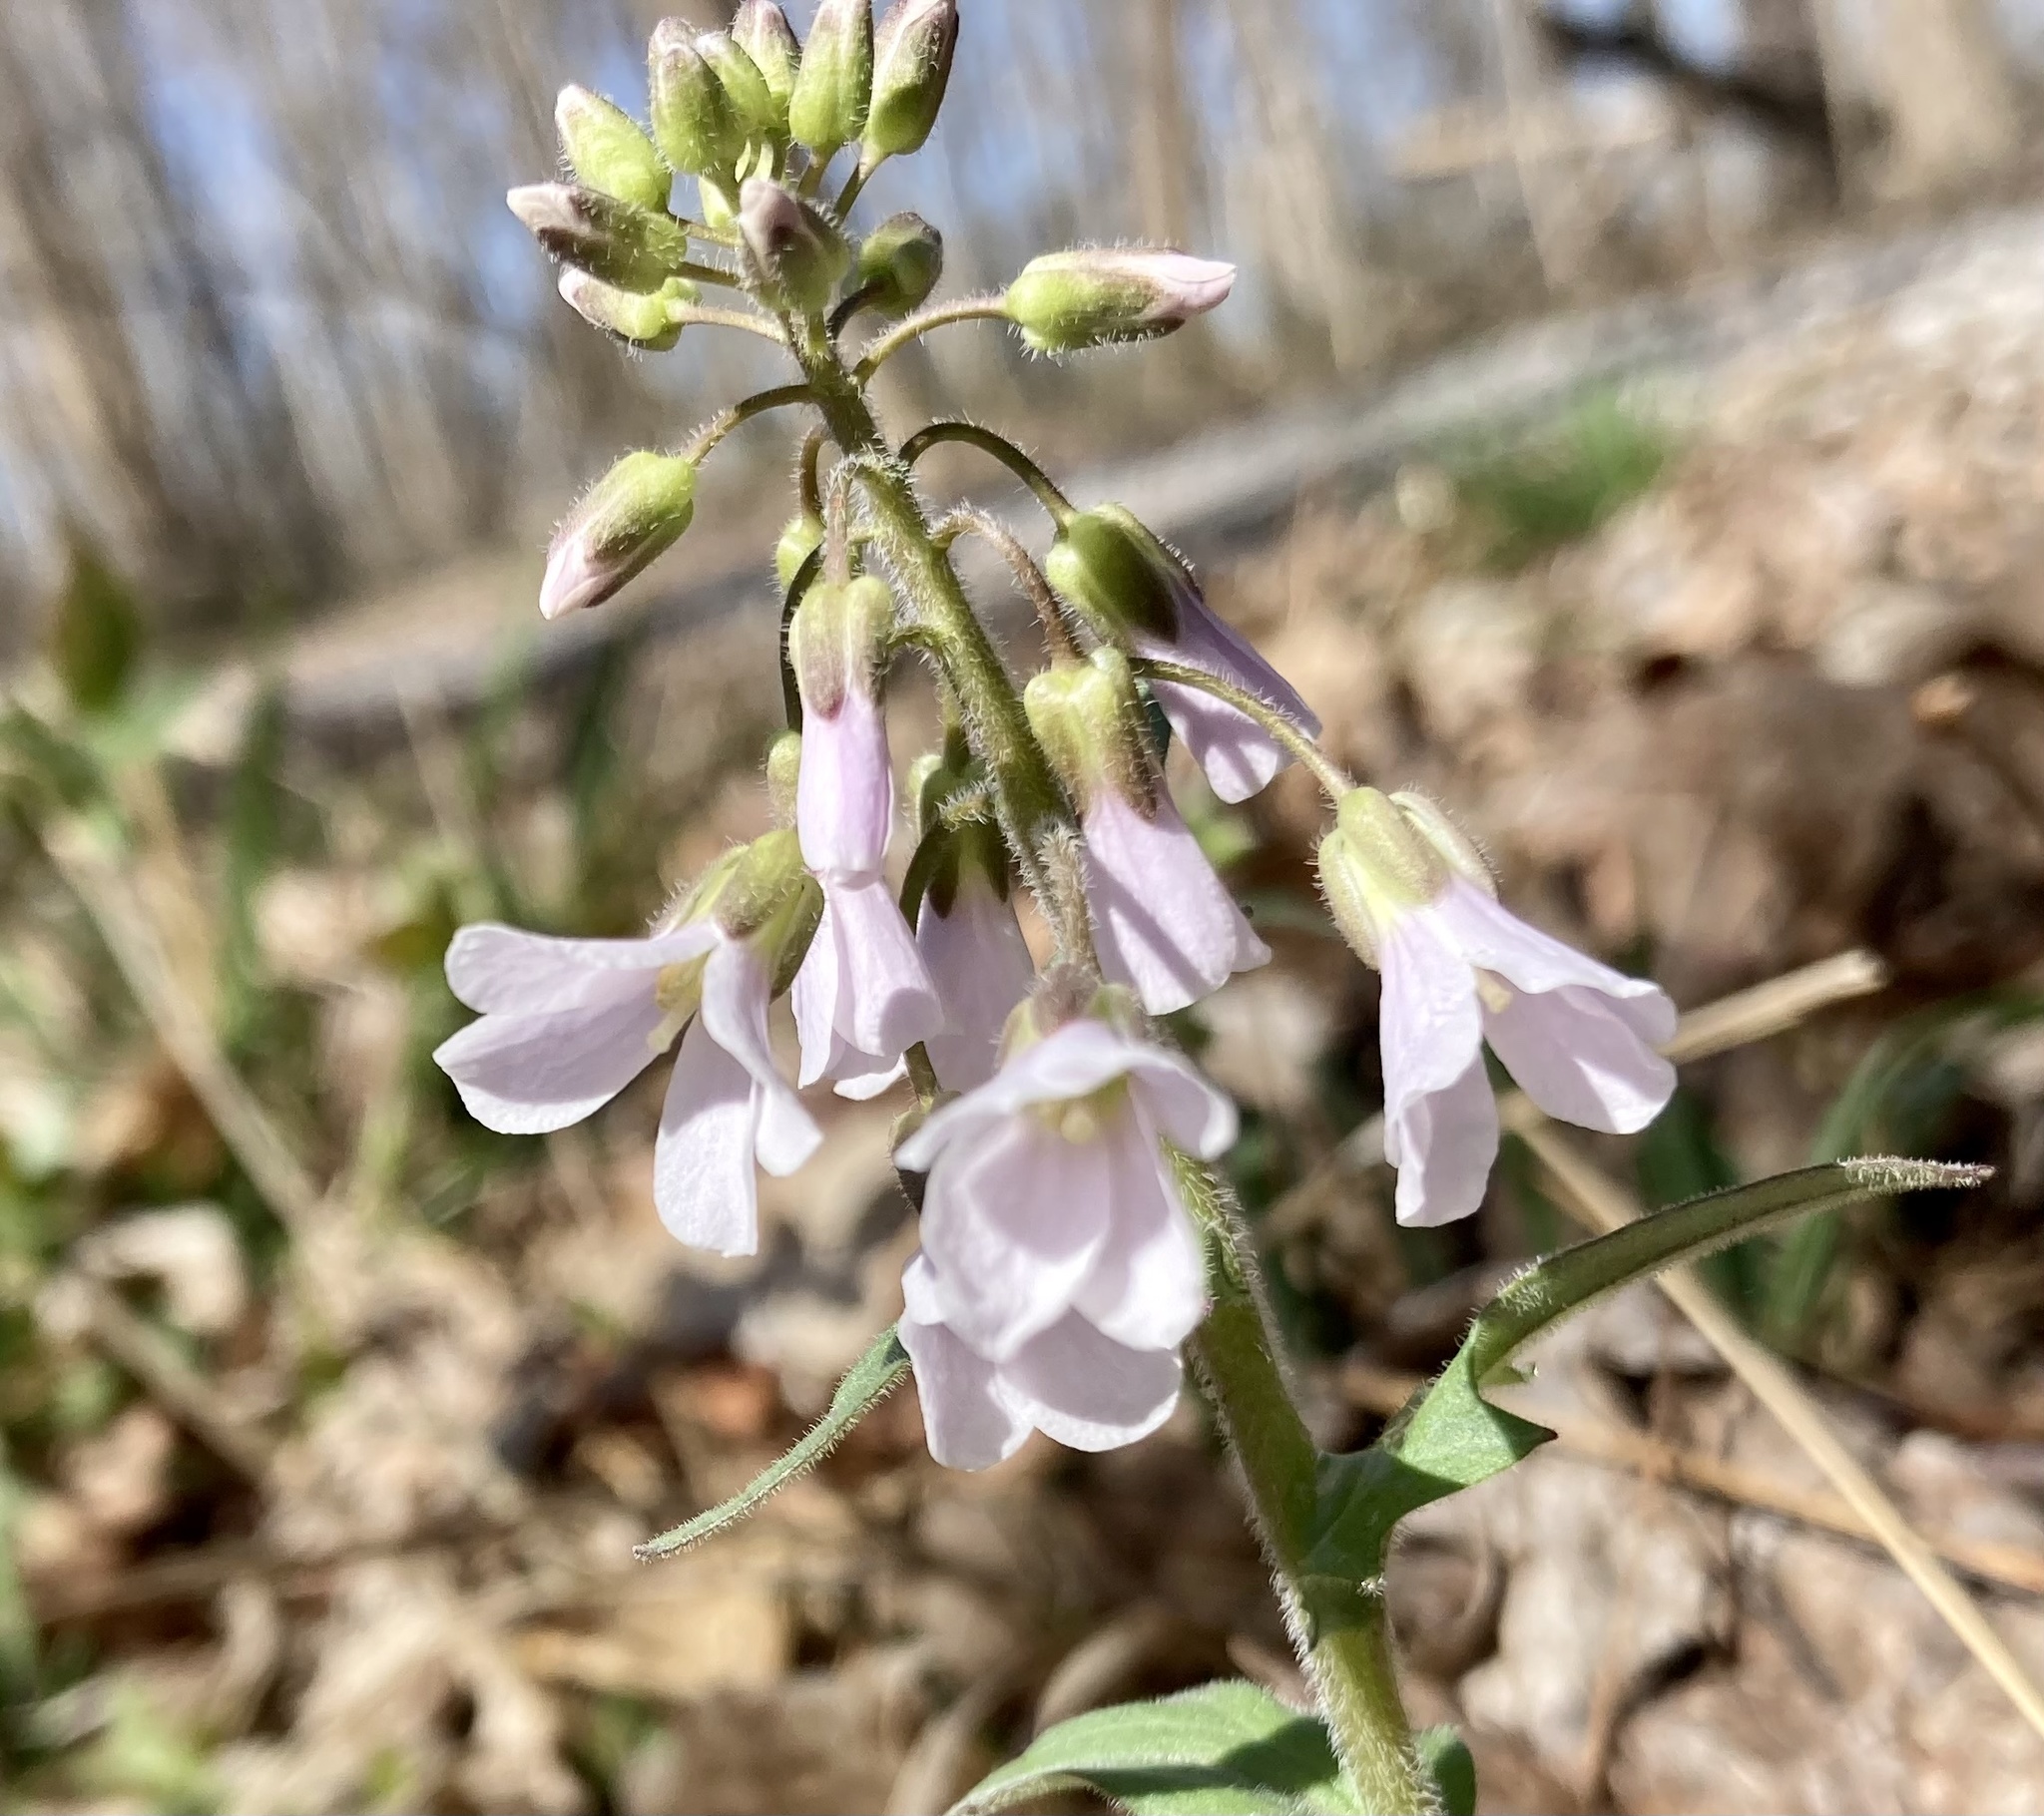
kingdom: Plantae
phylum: Tracheophyta
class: Magnoliopsida
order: Brassicales
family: Brassicaceae
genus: Cardamine
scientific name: Cardamine douglassii
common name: Purple cress
